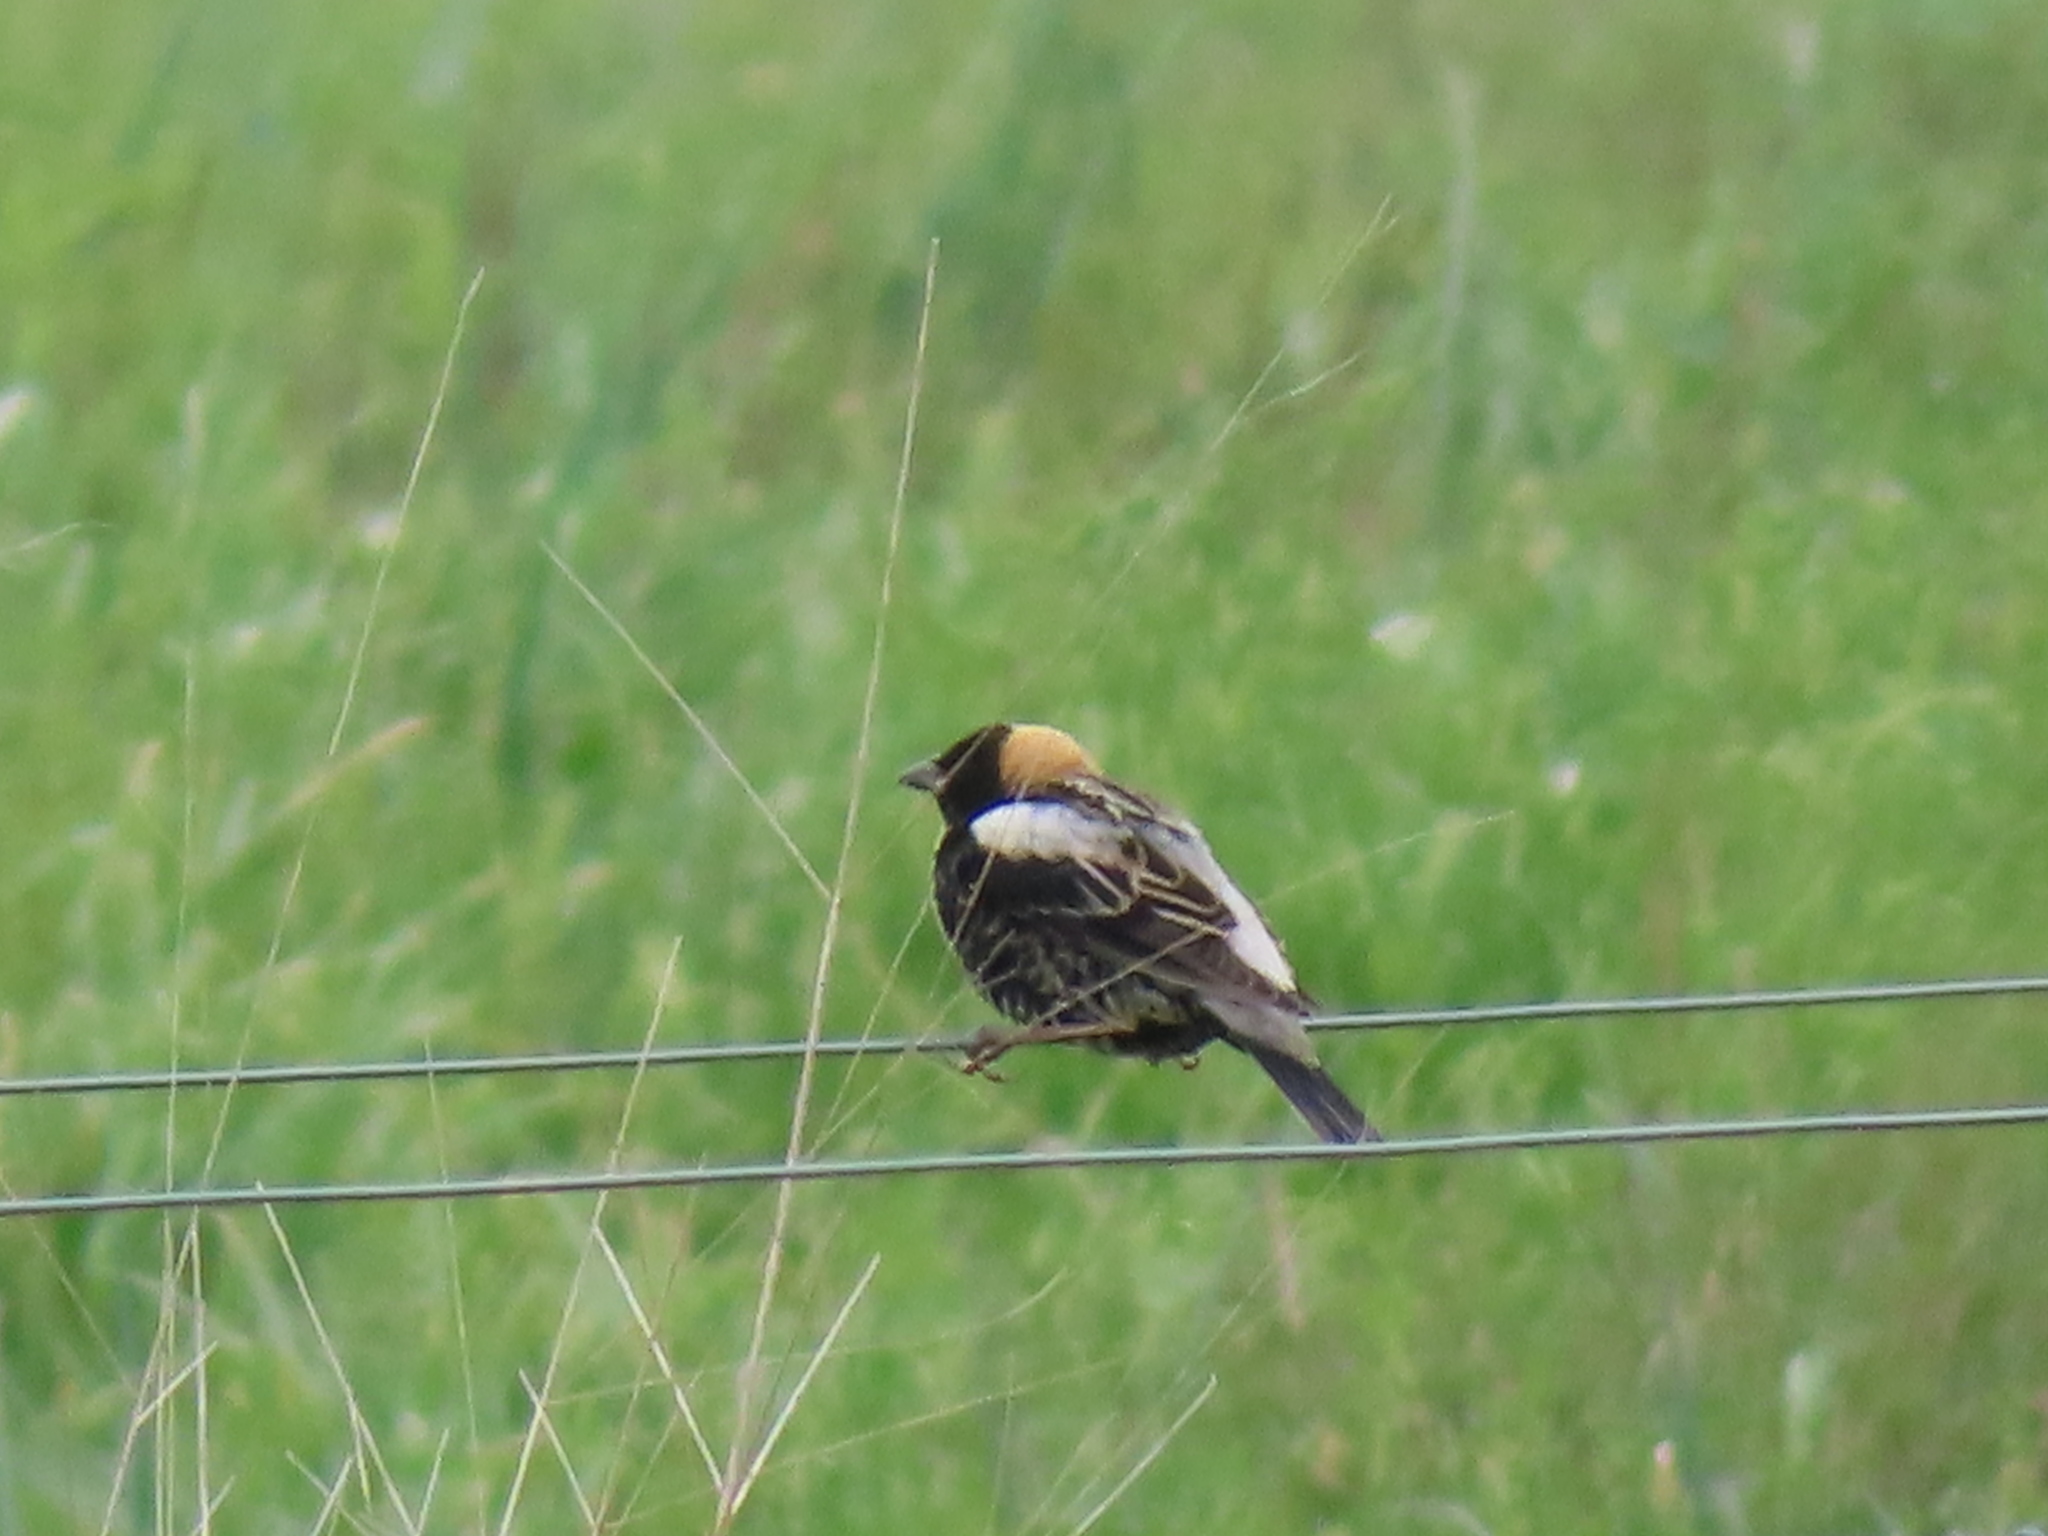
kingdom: Animalia
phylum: Chordata
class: Aves
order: Passeriformes
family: Icteridae
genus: Dolichonyx
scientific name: Dolichonyx oryzivorus
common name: Bobolink
